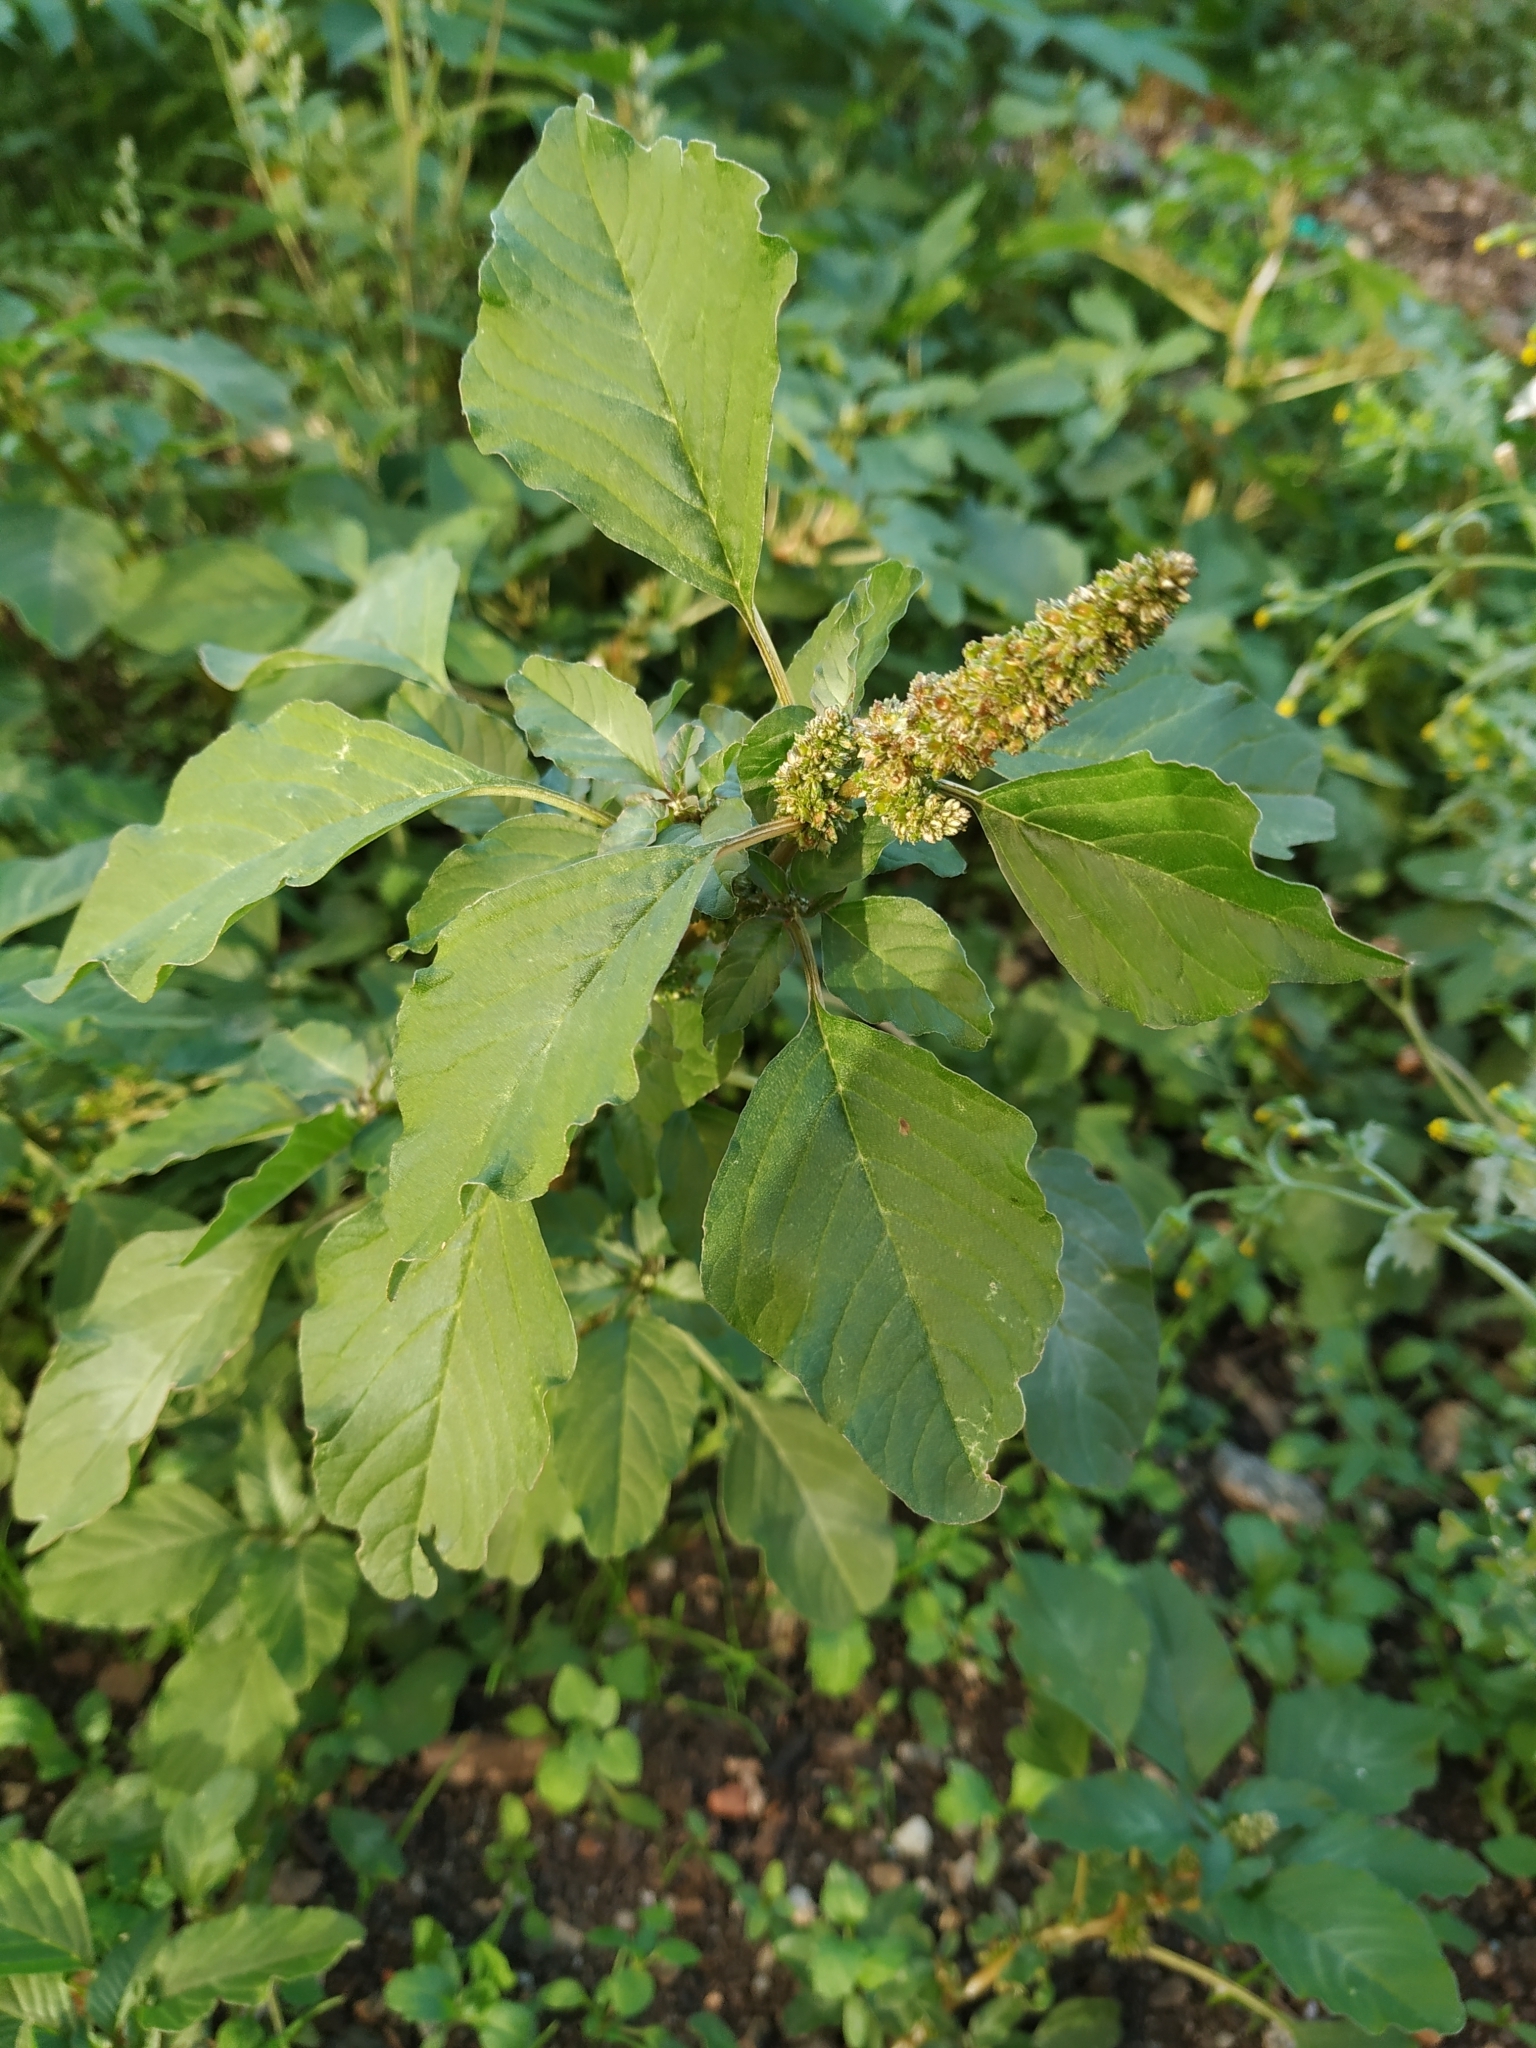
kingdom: Plantae
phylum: Tracheophyta
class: Magnoliopsida
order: Caryophyllales
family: Amaranthaceae
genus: Amaranthus
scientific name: Amaranthus blitum
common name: Purple amaranth
